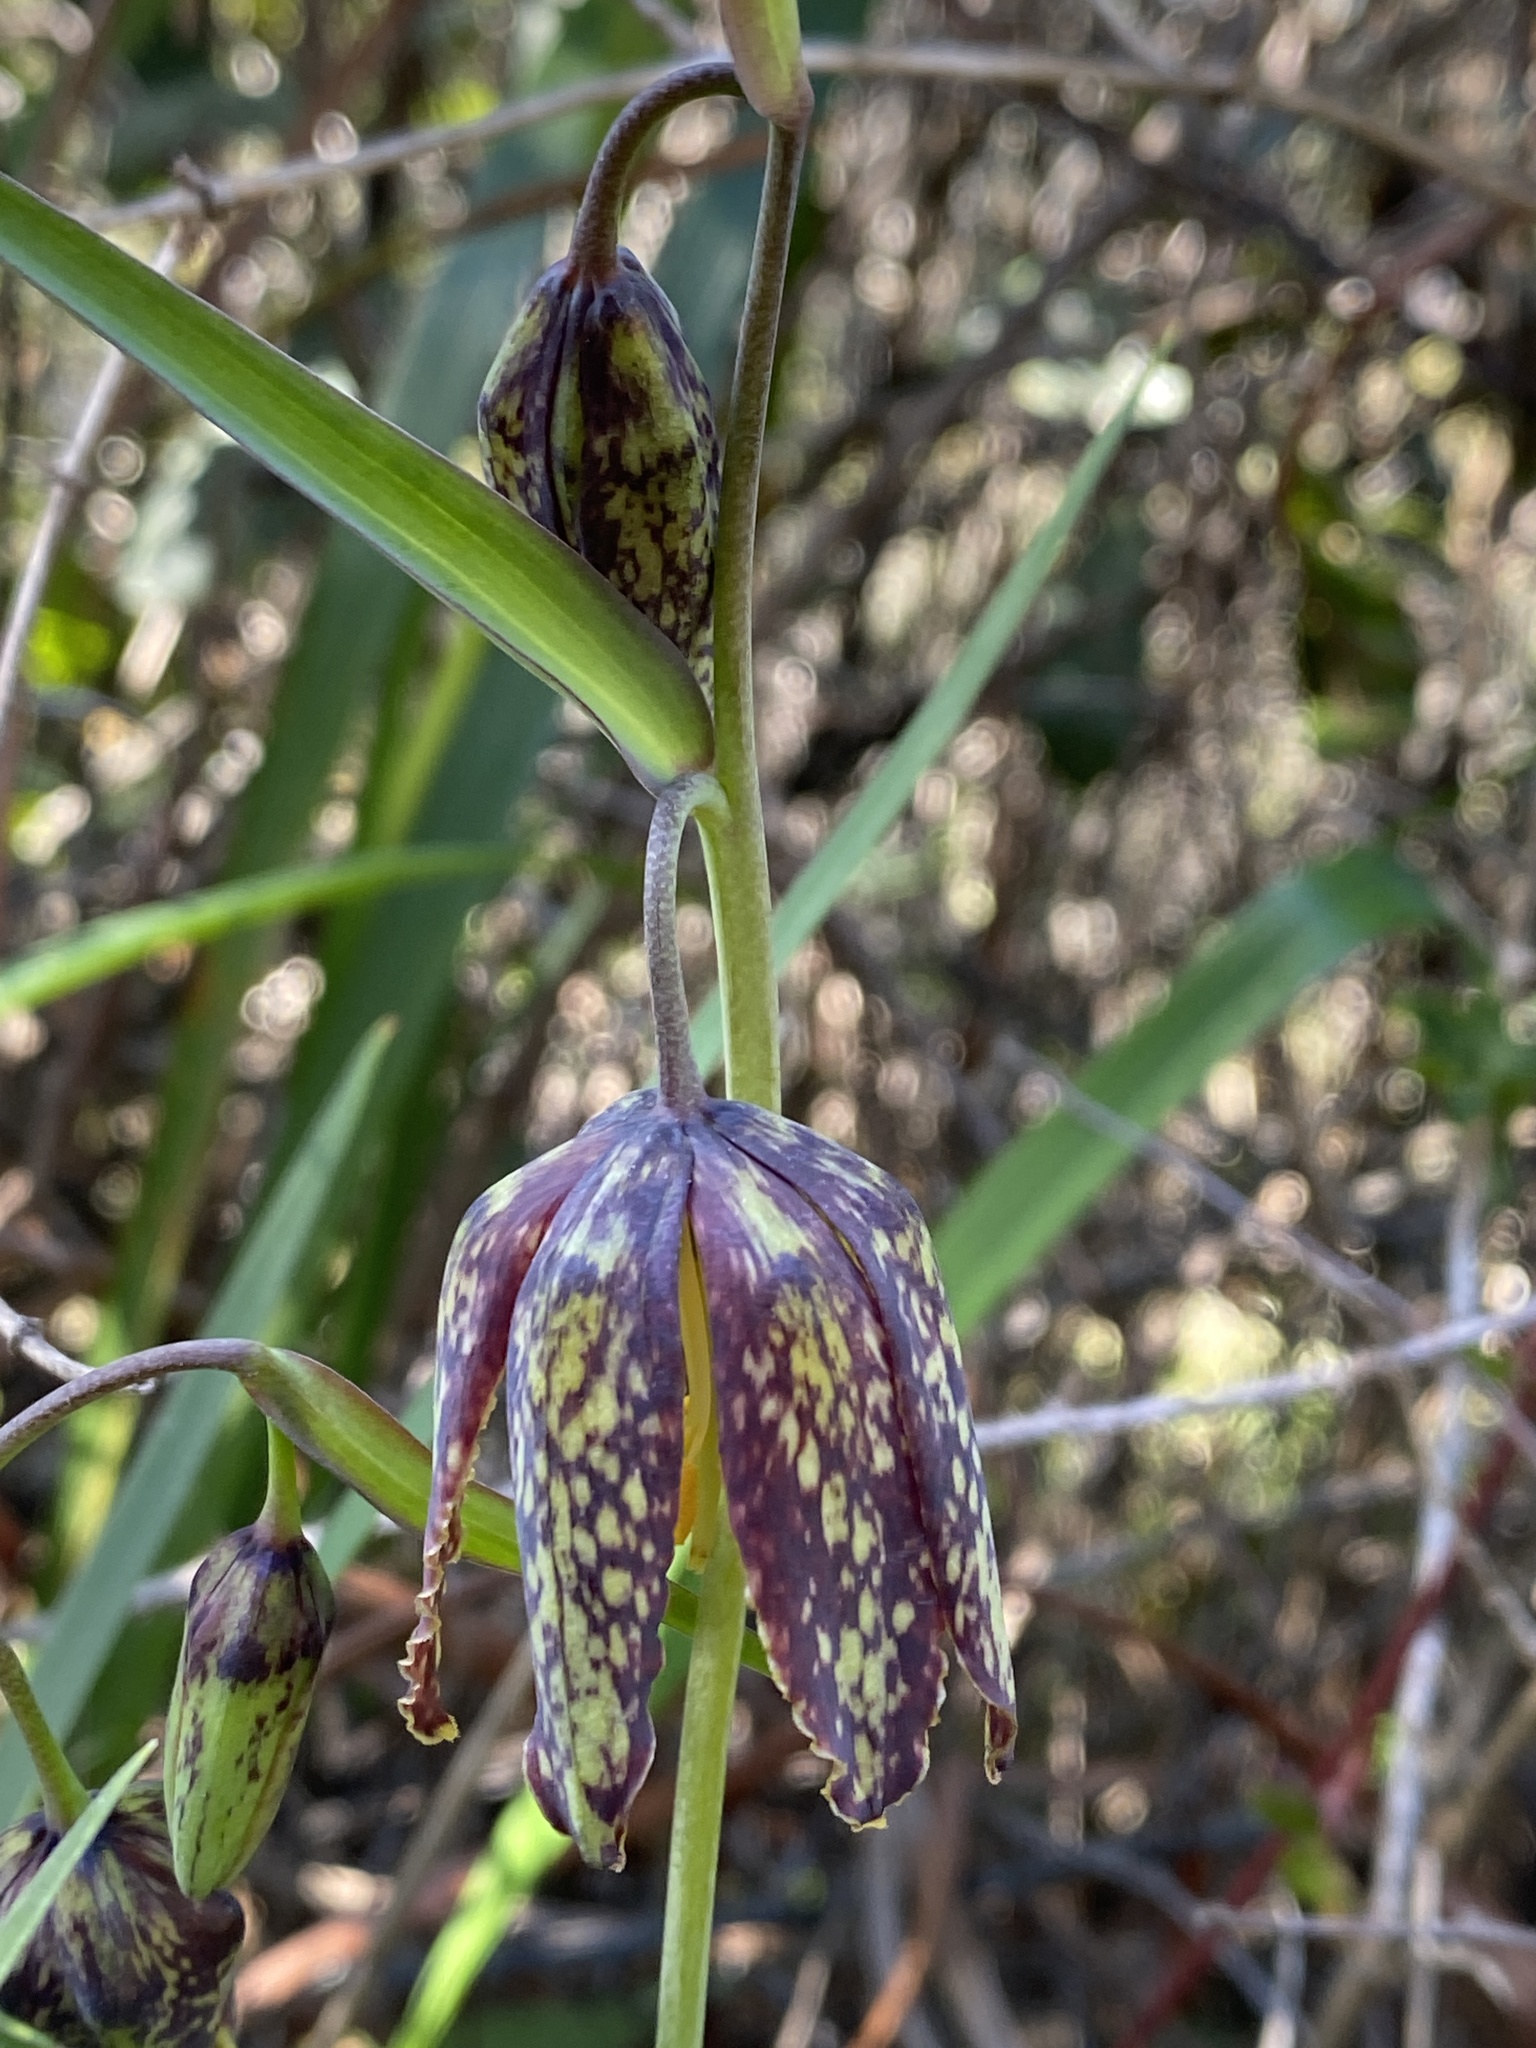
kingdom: Plantae
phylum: Tracheophyta
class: Liliopsida
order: Liliales
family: Liliaceae
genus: Fritillaria
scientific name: Fritillaria affinis
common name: Ojai fritillary
